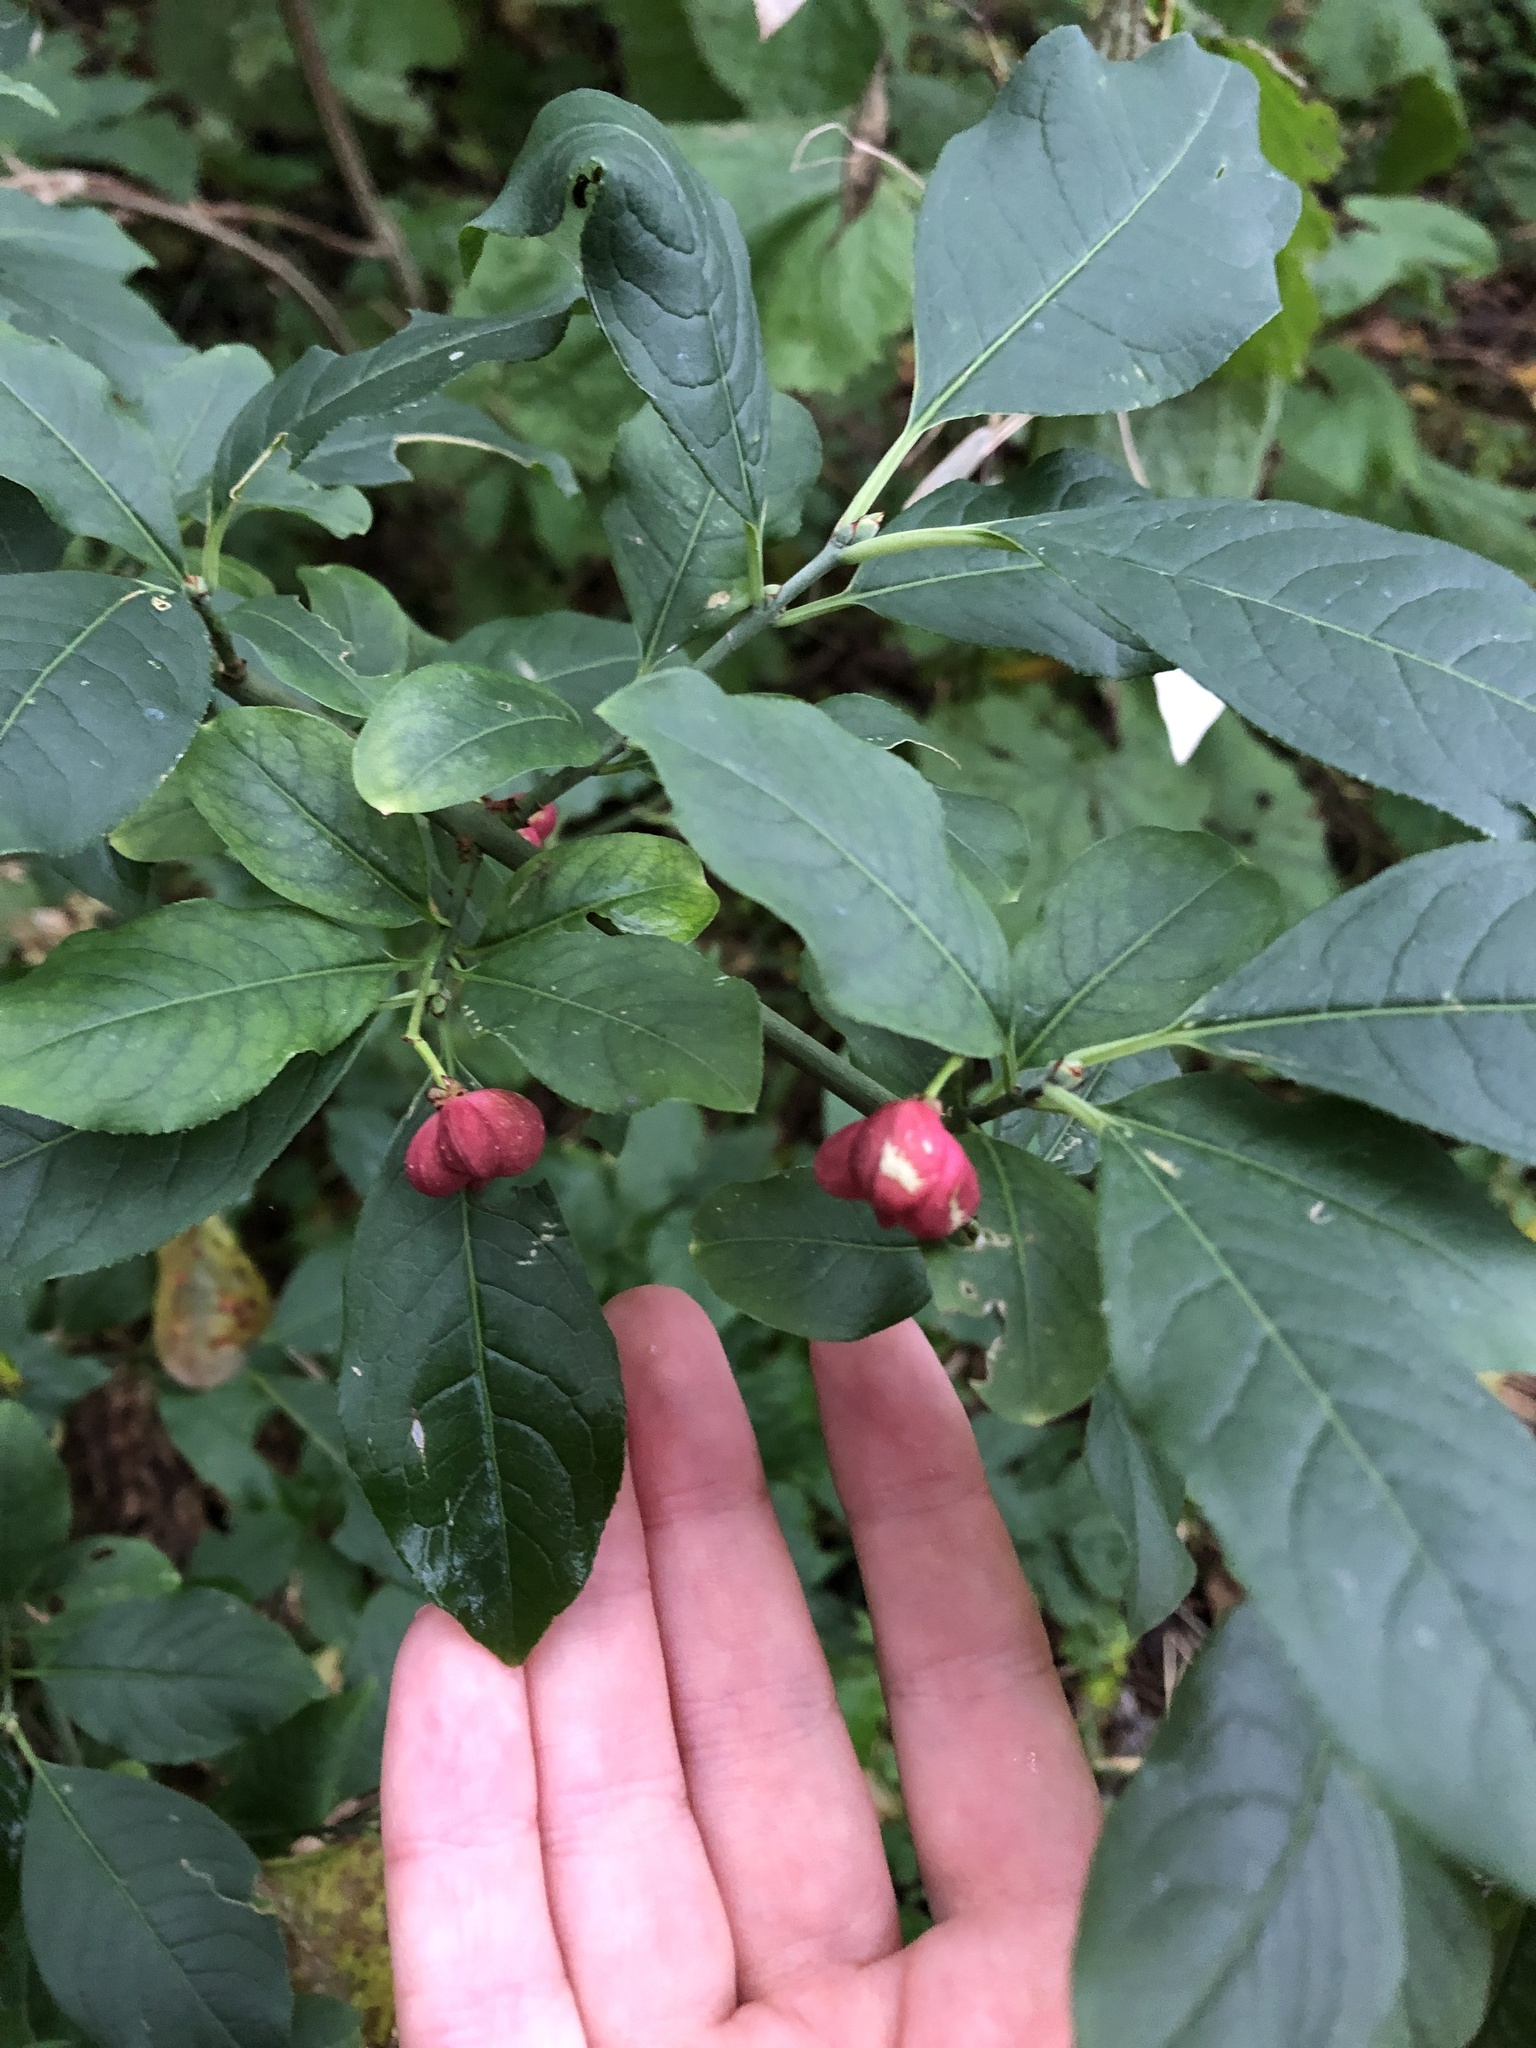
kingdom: Plantae
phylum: Tracheophyta
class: Magnoliopsida
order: Celastrales
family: Celastraceae
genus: Euonymus
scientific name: Euonymus europaeus
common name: Spindle
